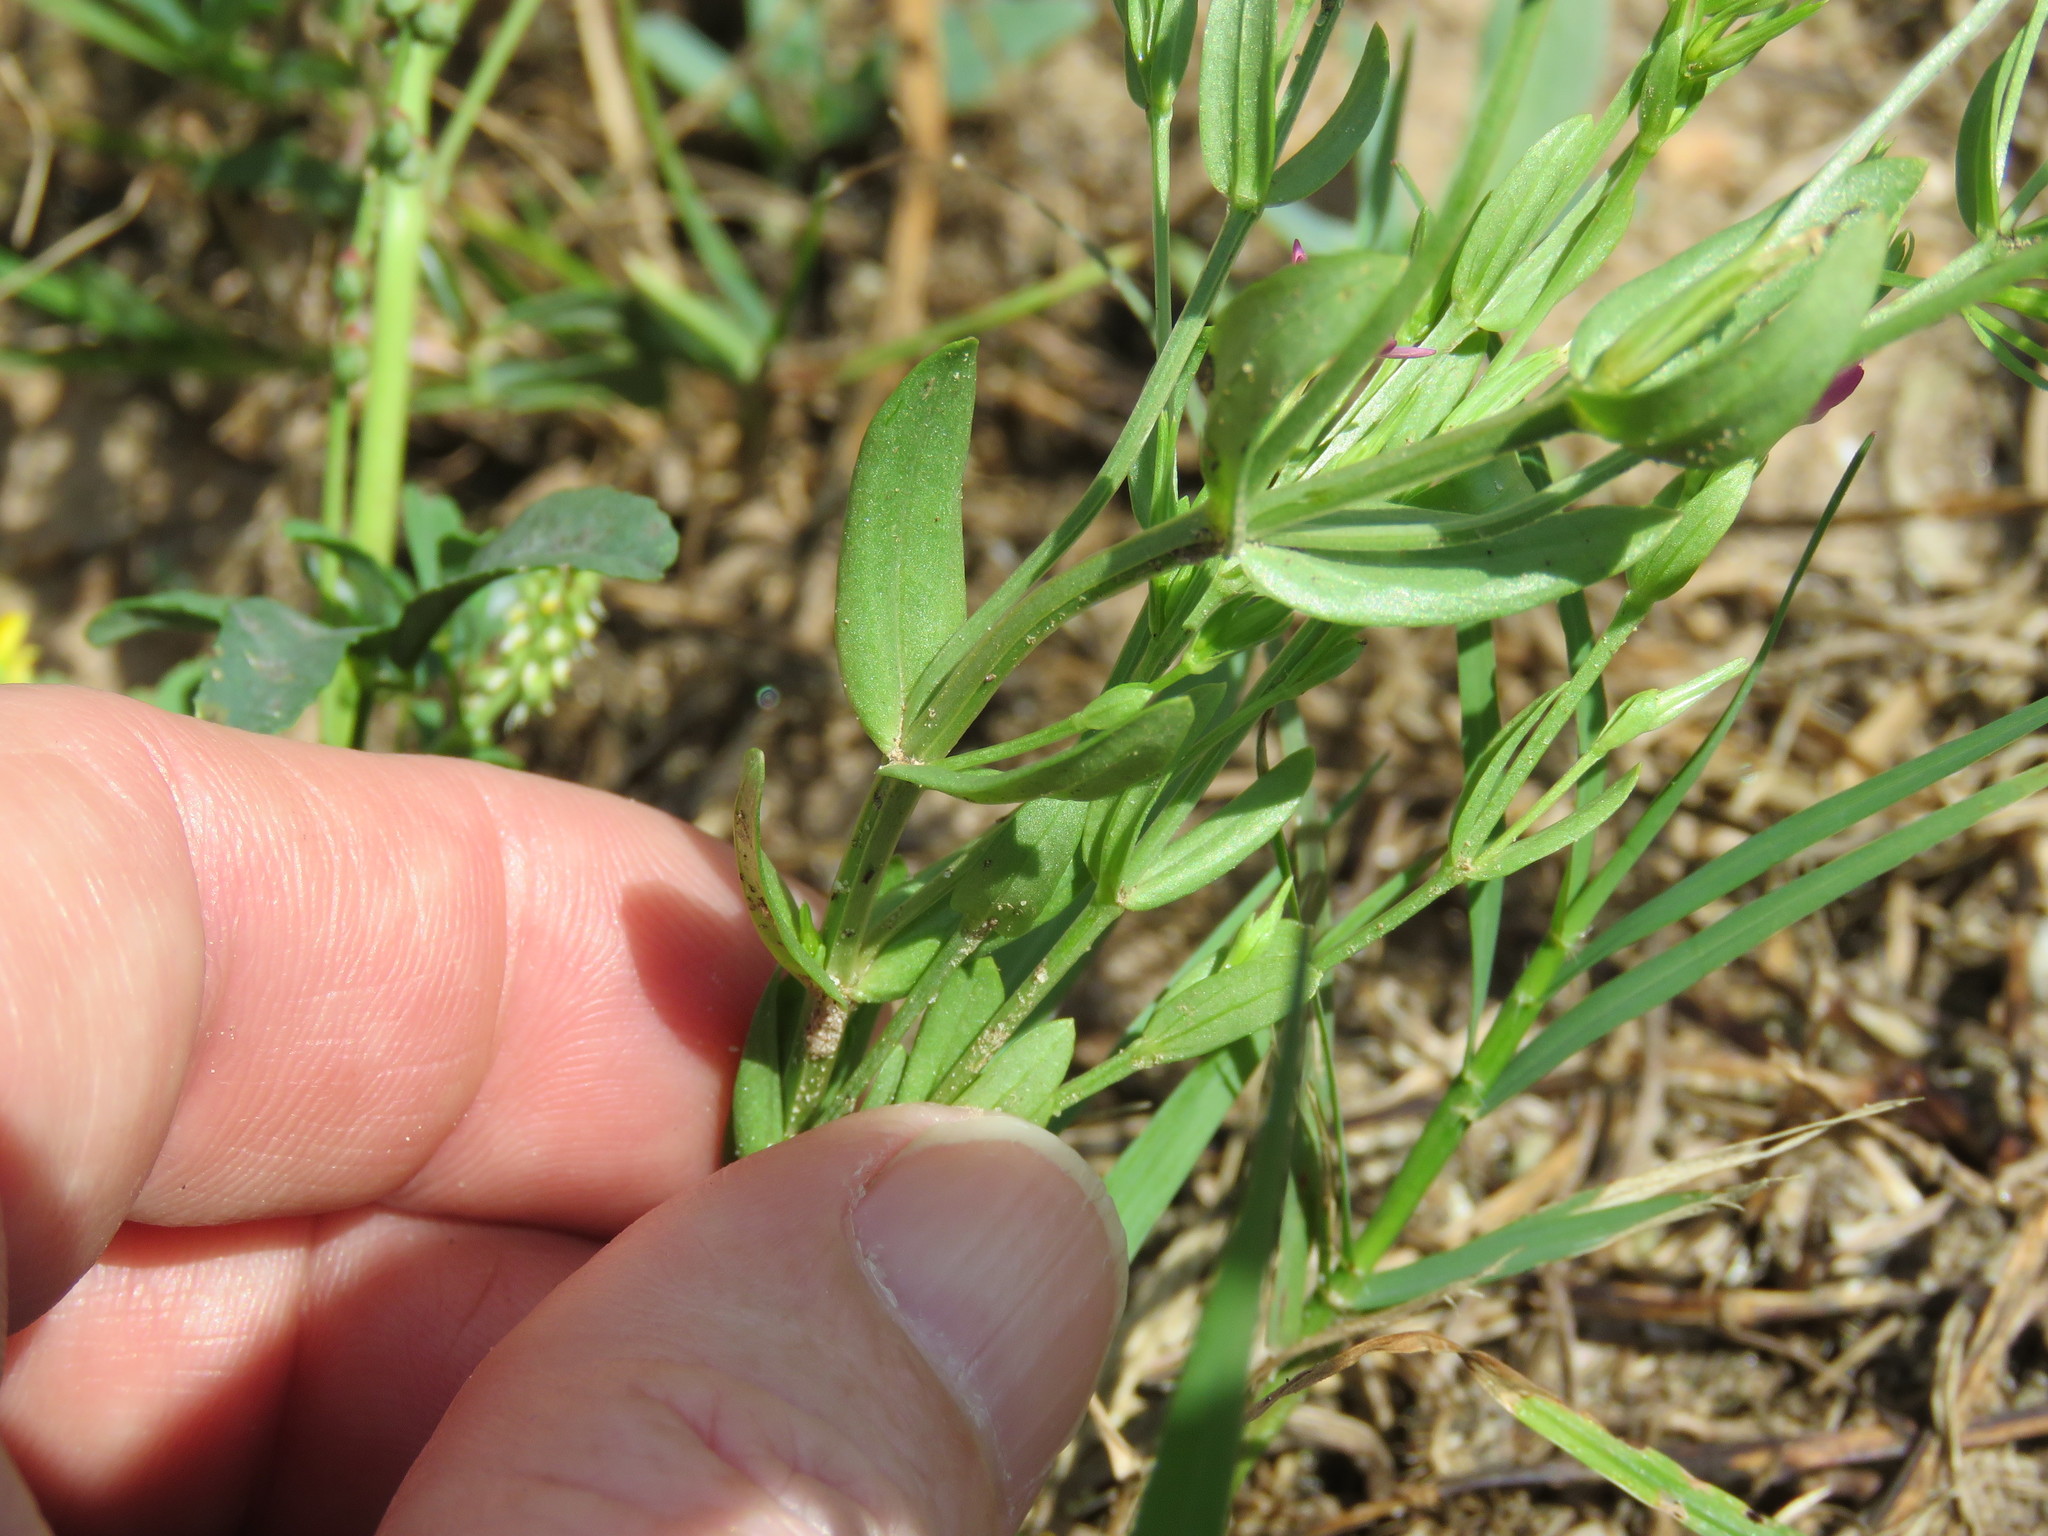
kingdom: Plantae
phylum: Tracheophyta
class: Magnoliopsida
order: Gentianales
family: Gentianaceae
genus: Centaurium
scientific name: Centaurium pulchellum
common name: Lesser centaury
